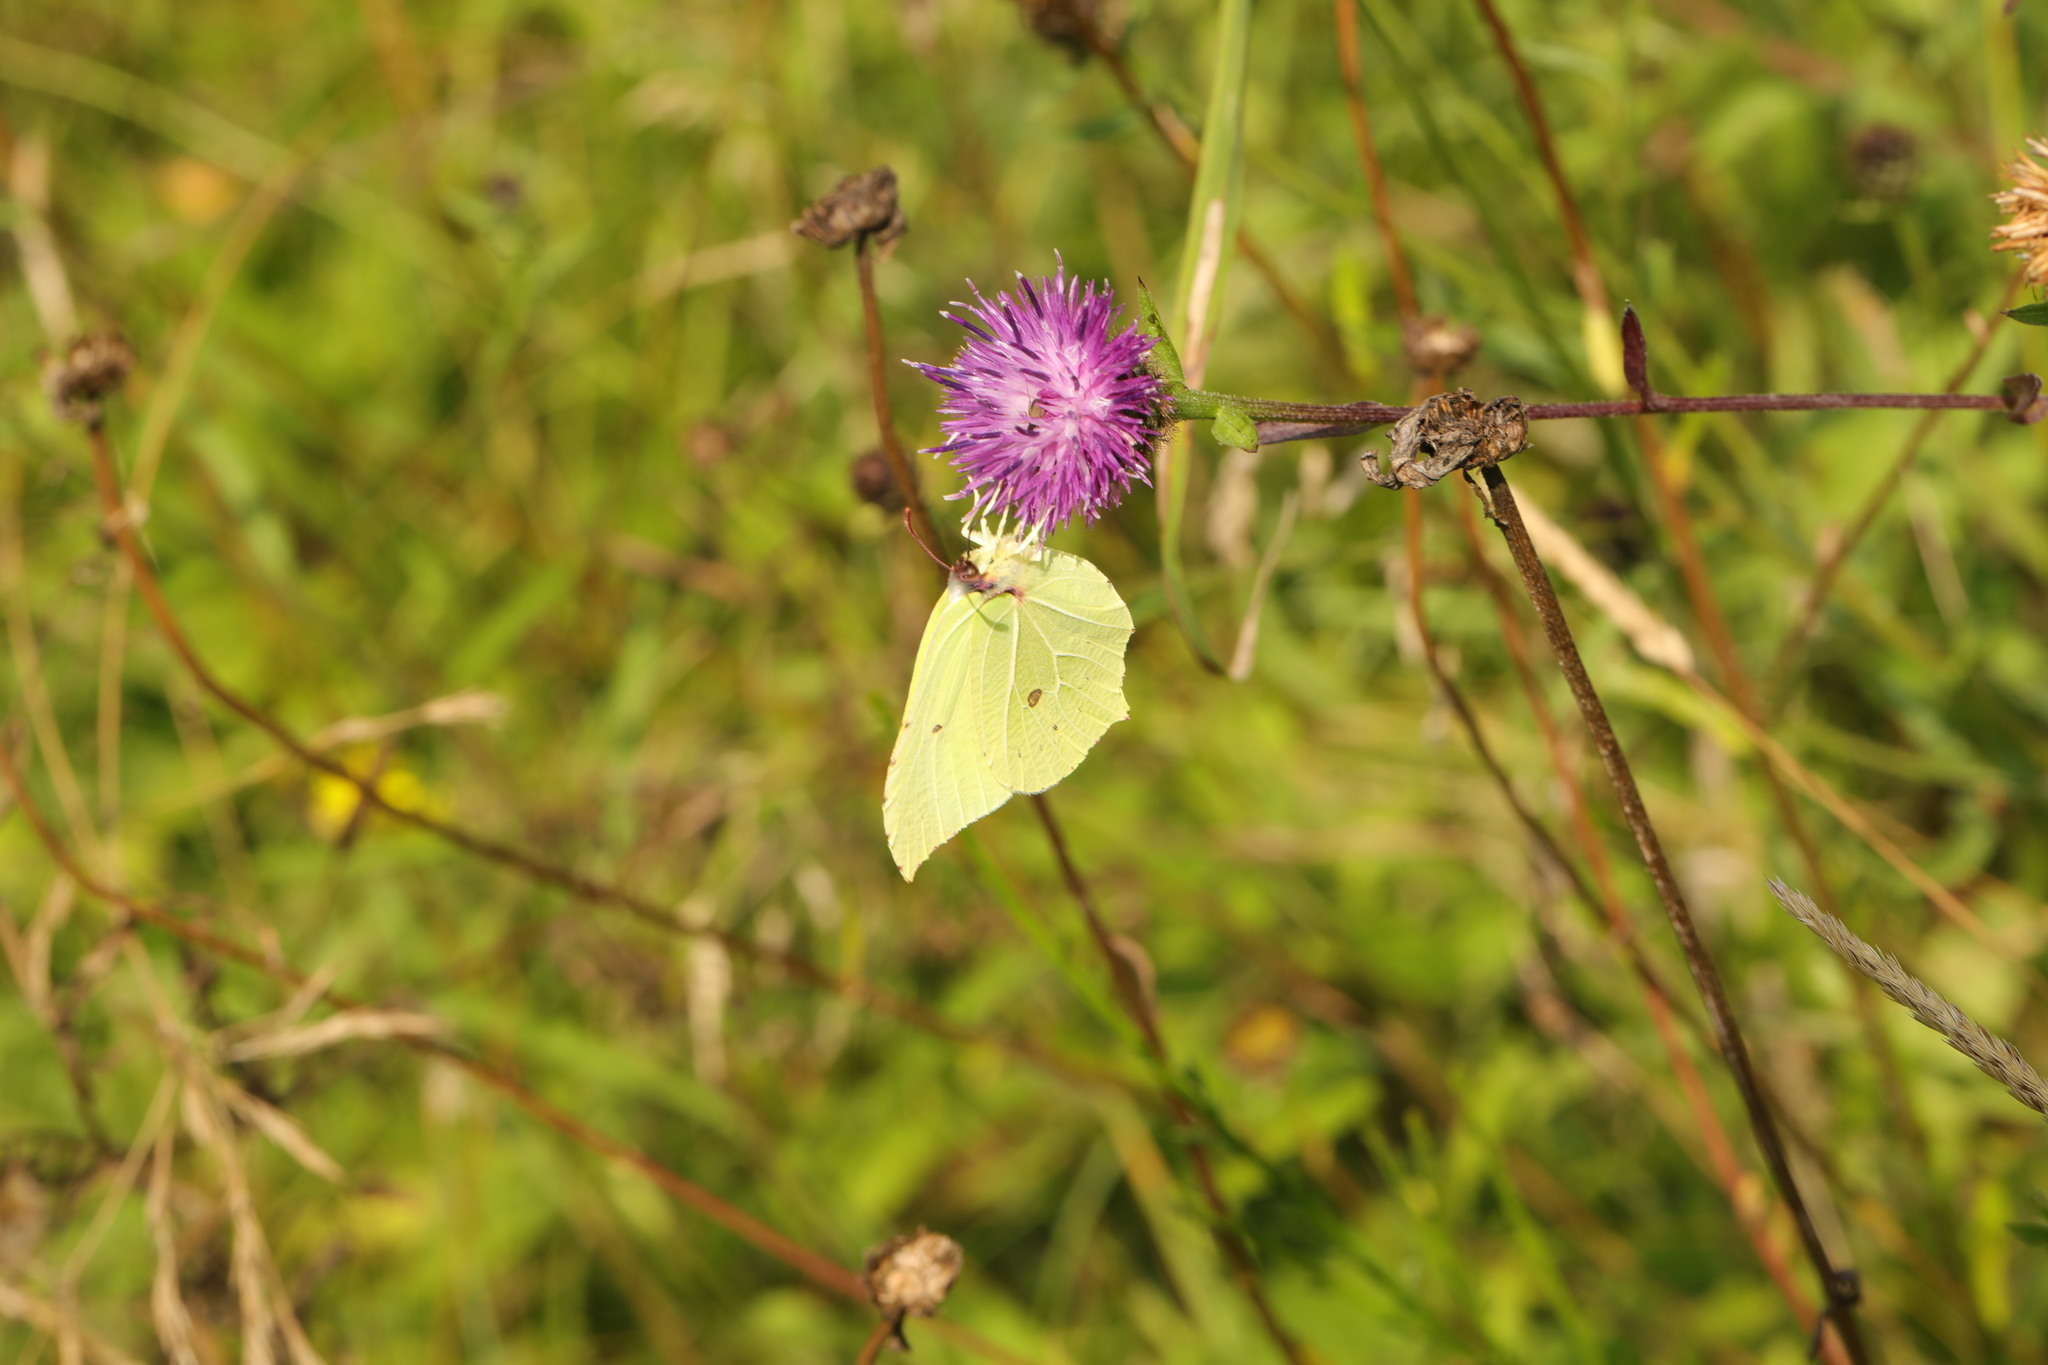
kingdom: Animalia
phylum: Arthropoda
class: Insecta
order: Lepidoptera
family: Pieridae
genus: Gonepteryx
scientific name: Gonepteryx rhamni
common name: Brimstone
